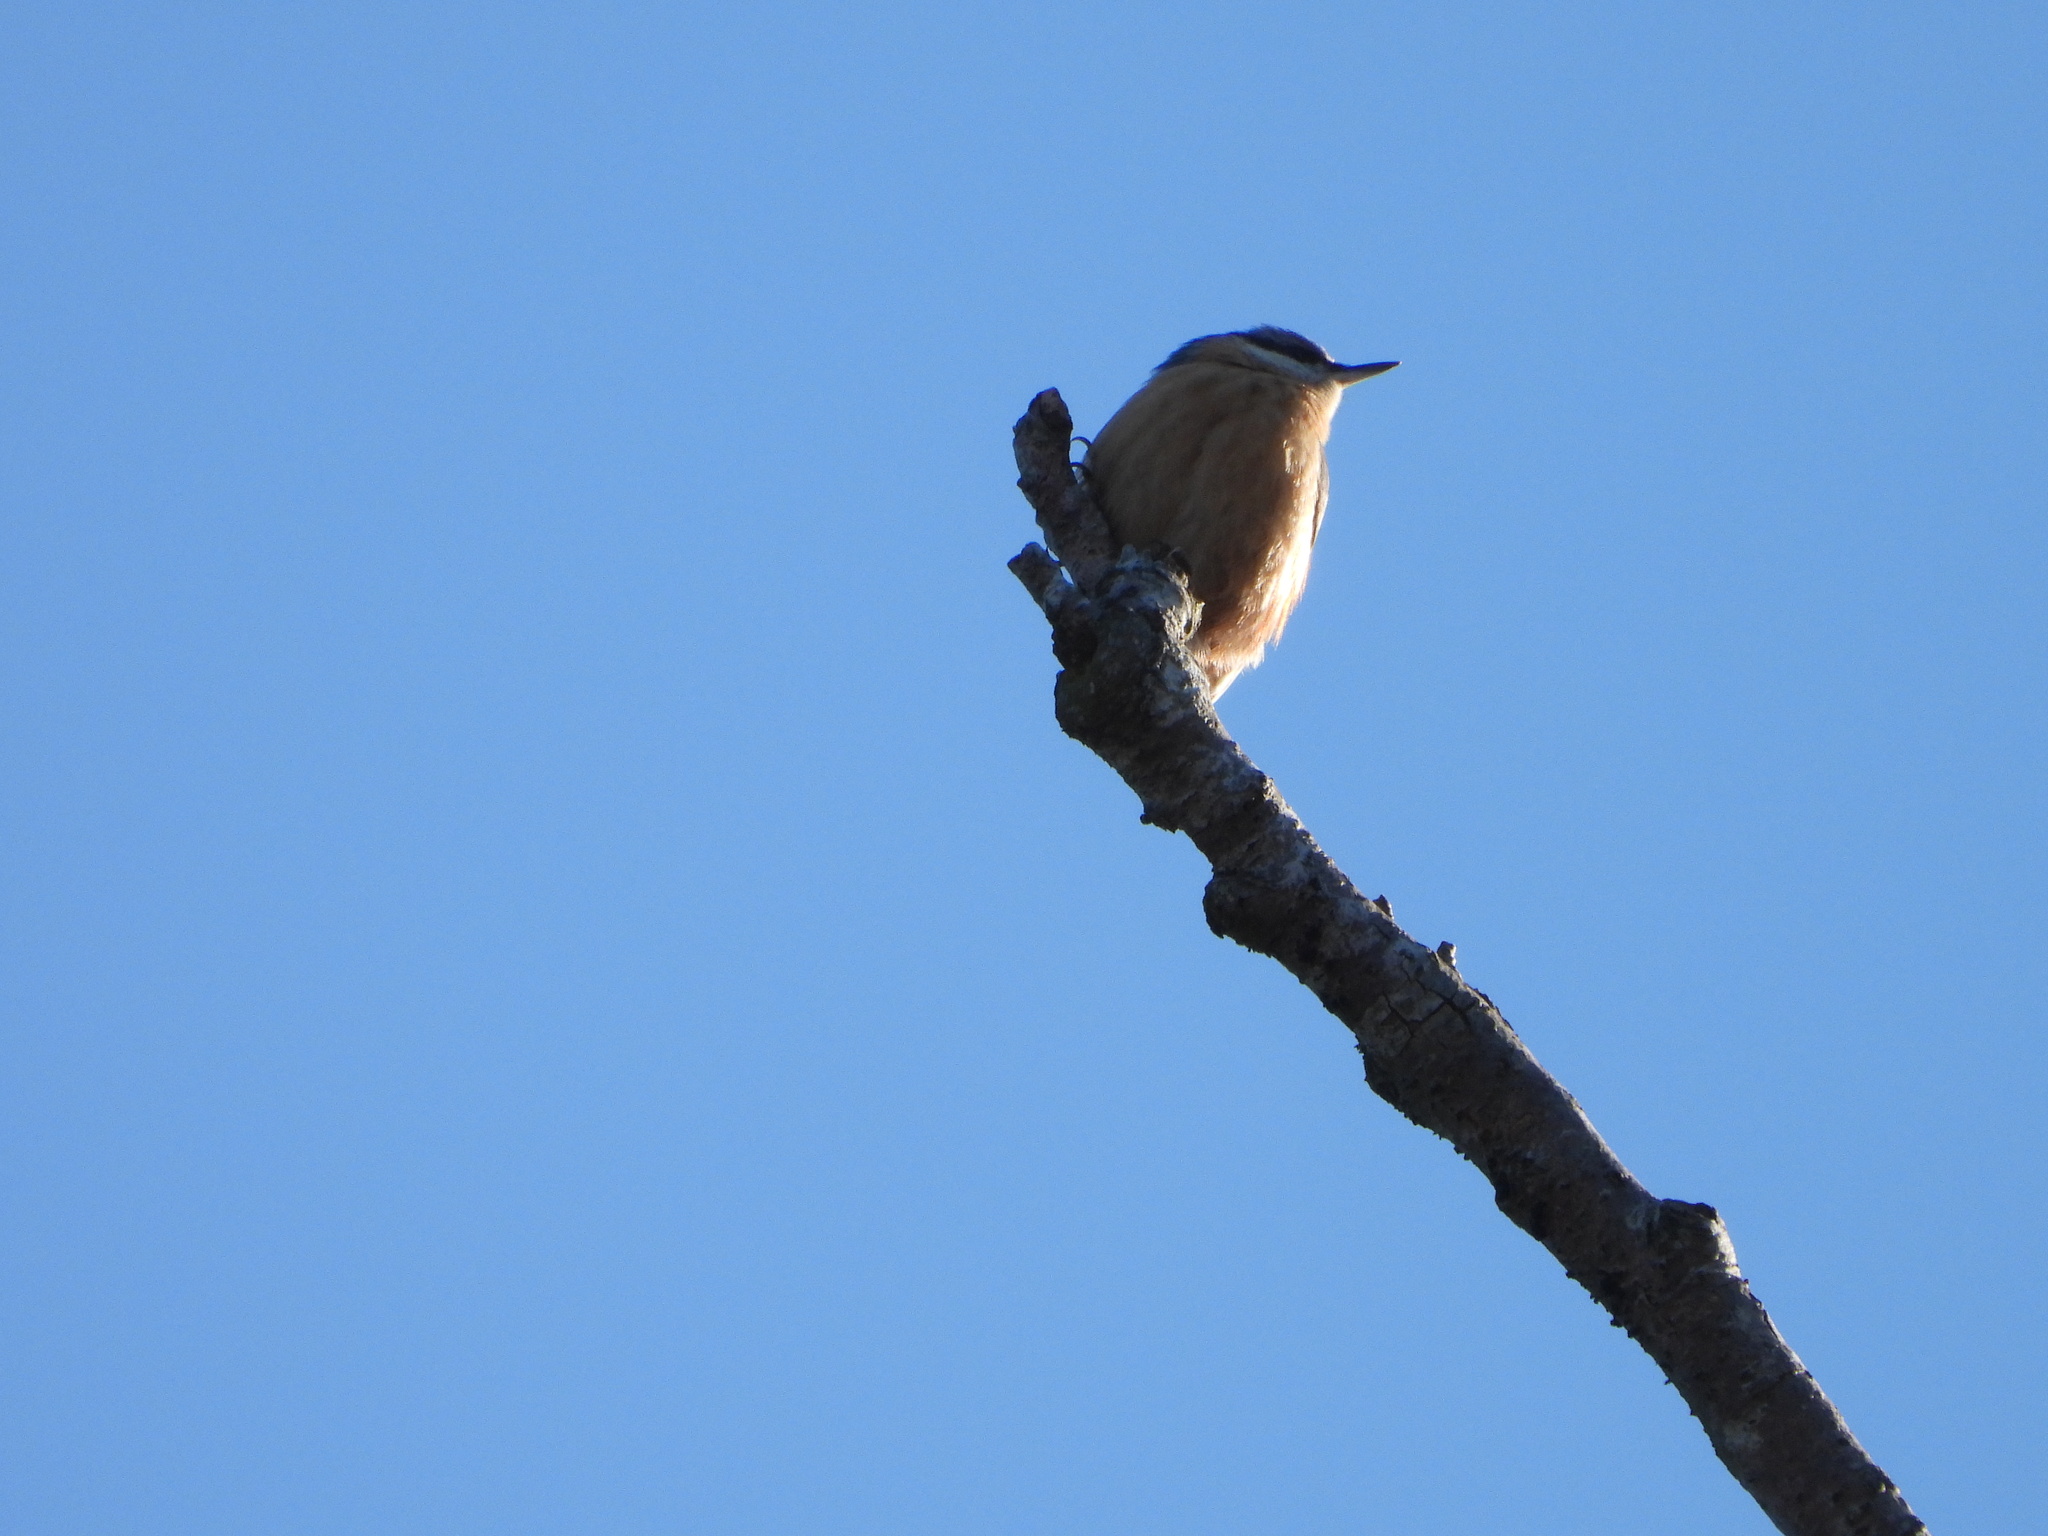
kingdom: Animalia
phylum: Chordata
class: Aves
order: Passeriformes
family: Sittidae
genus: Sitta
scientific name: Sitta europaea
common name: Eurasian nuthatch
